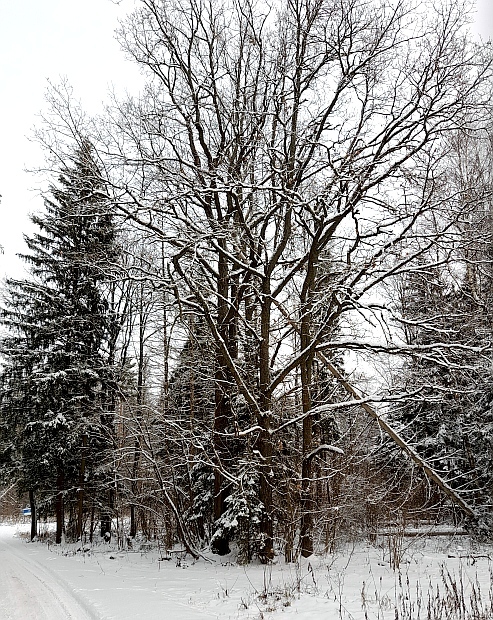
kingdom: Plantae
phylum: Tracheophyta
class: Magnoliopsida
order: Fagales
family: Fagaceae
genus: Quercus
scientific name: Quercus robur
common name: Pedunculate oak
